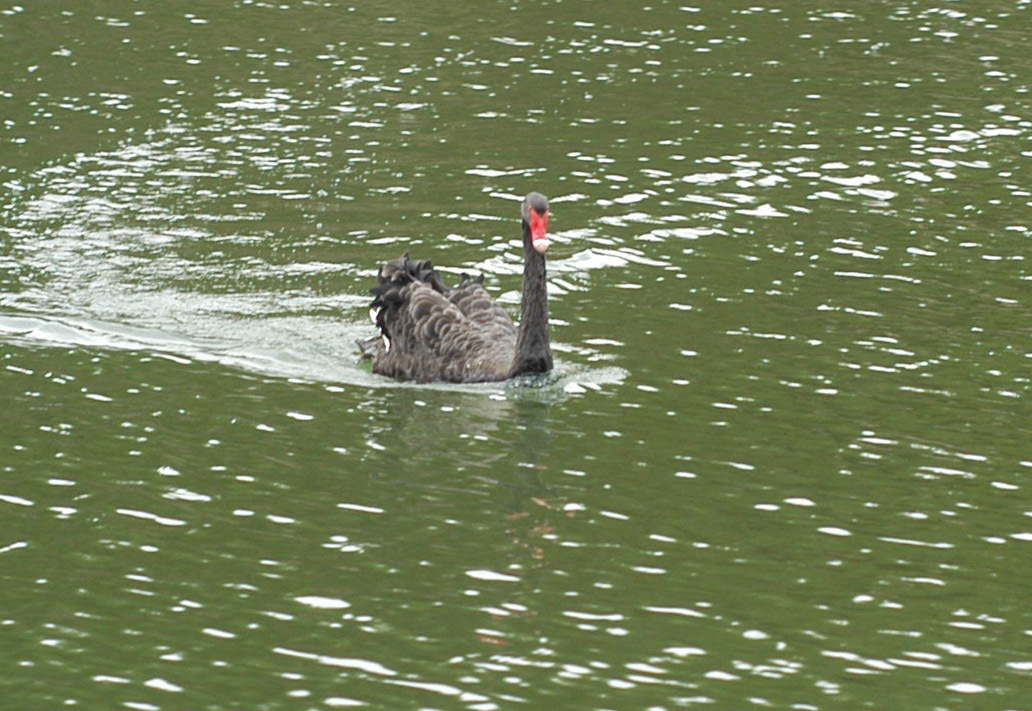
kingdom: Animalia
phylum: Chordata
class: Aves
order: Anseriformes
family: Anatidae
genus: Cygnus
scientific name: Cygnus atratus
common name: Black swan
